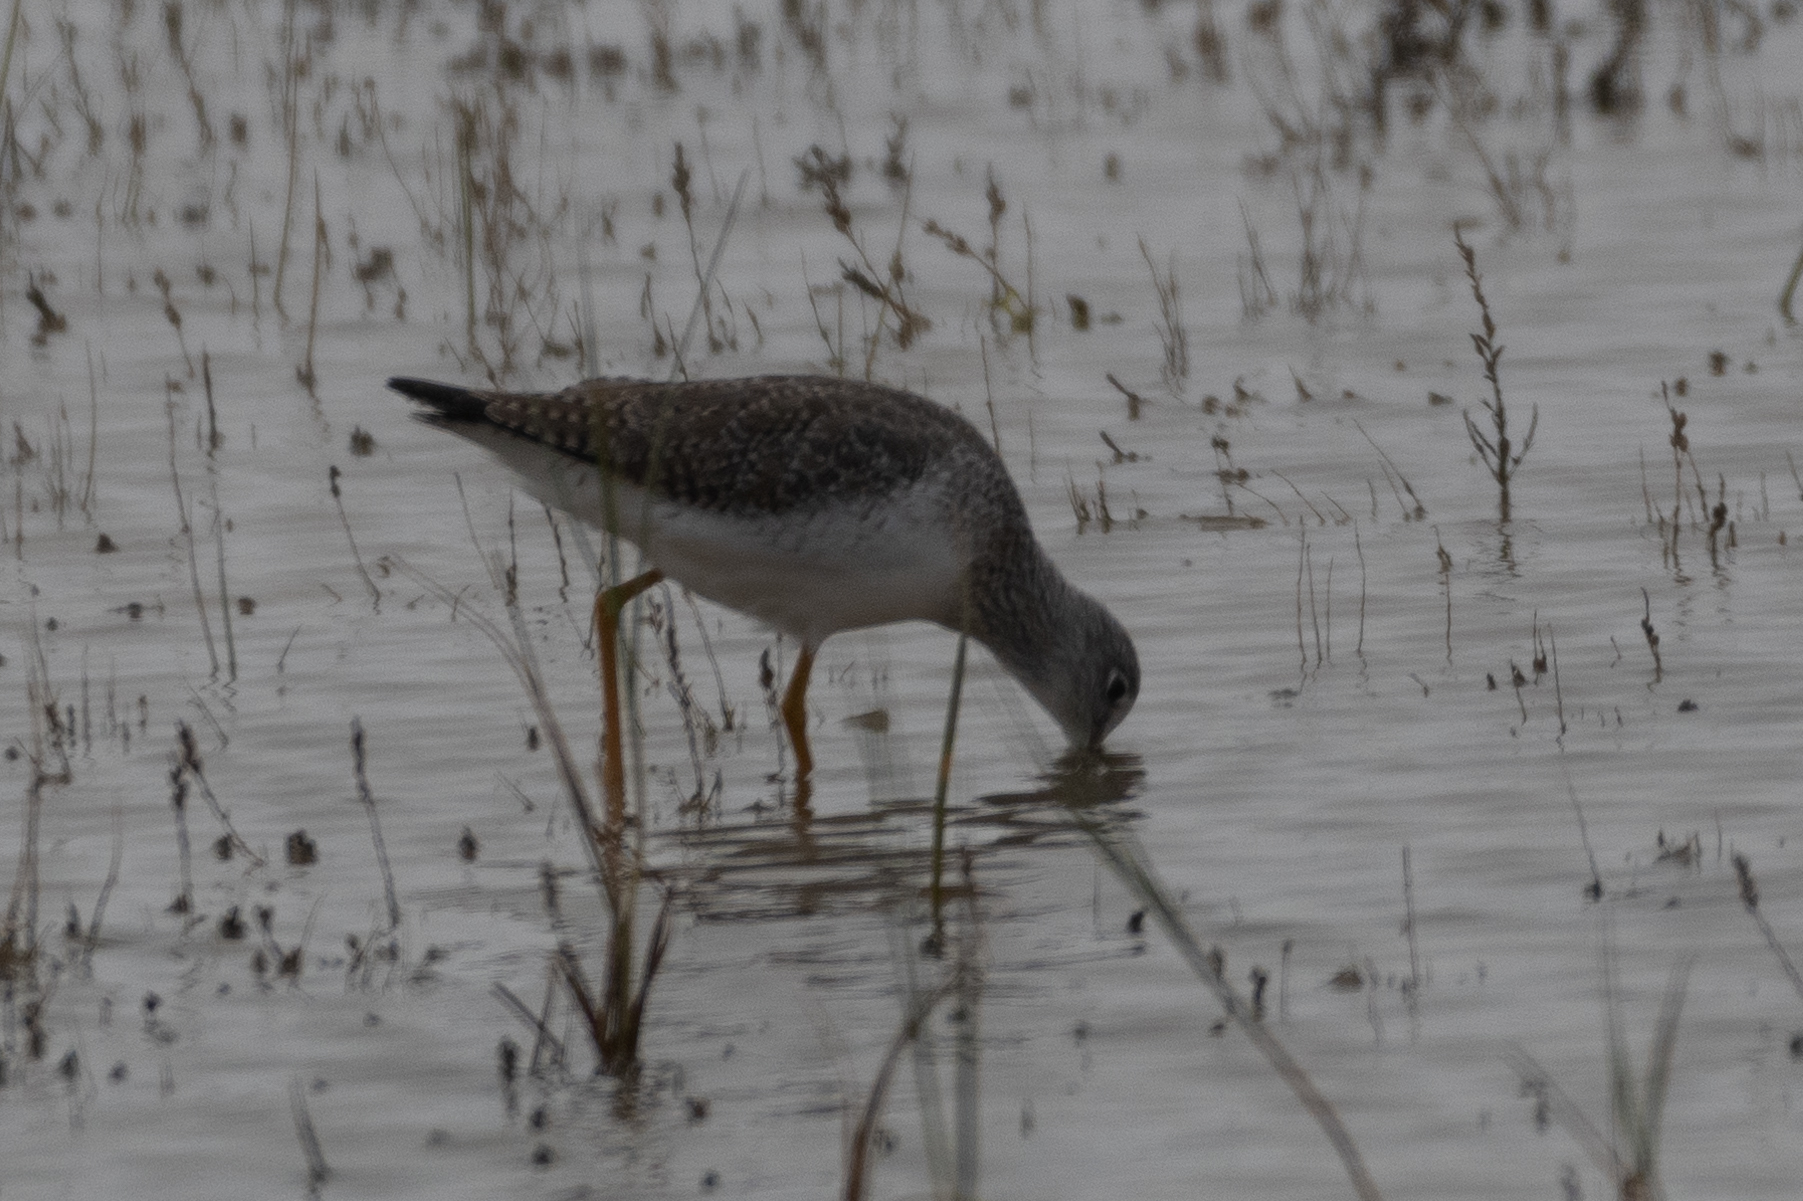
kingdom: Animalia
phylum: Chordata
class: Aves
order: Charadriiformes
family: Scolopacidae
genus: Tringa
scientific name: Tringa melanoleuca
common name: Greater yellowlegs
